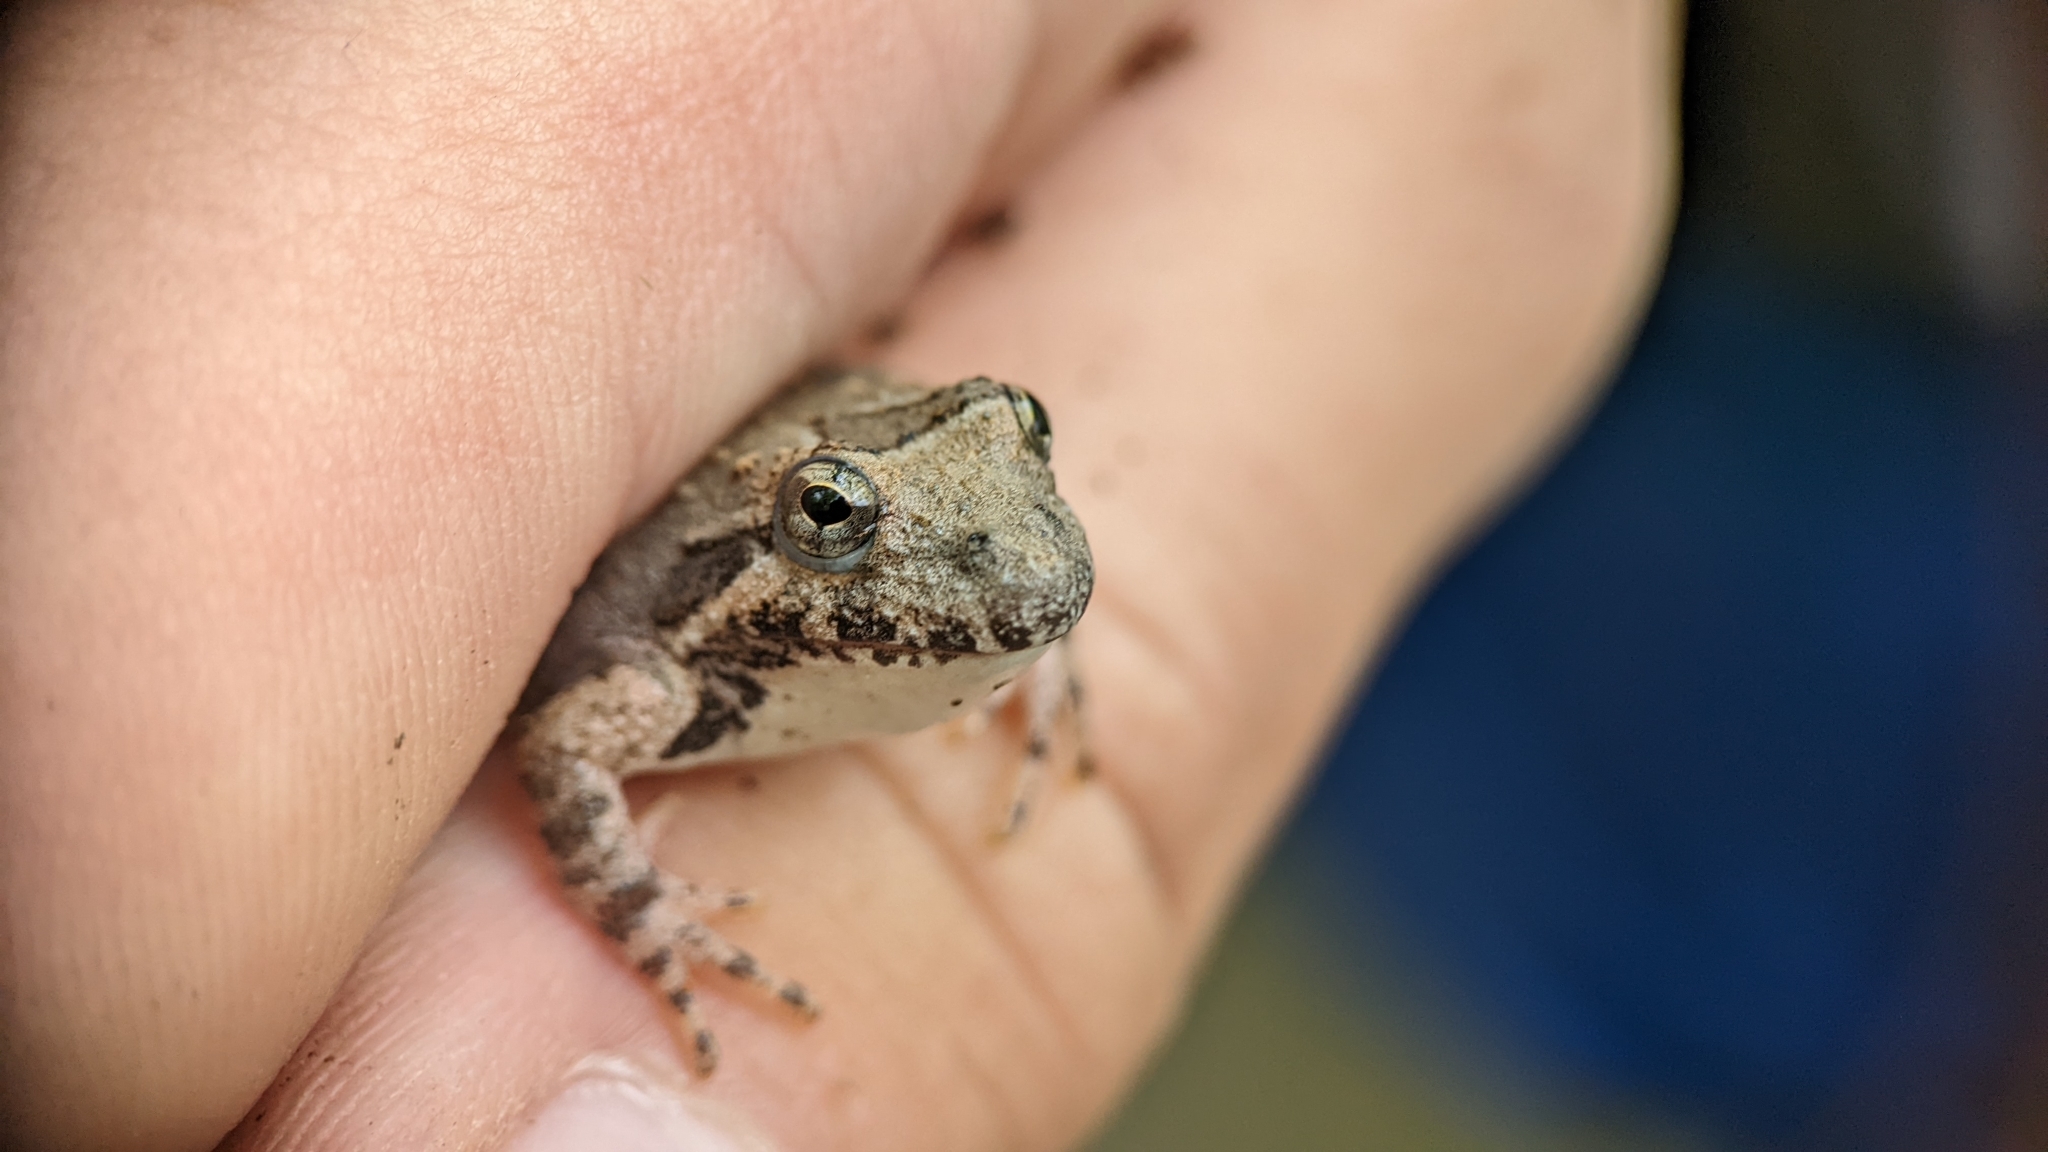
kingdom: Animalia
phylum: Chordata
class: Amphibia
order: Anura
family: Hylidae
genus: Acris
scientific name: Acris blanchardi
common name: Blanchard's cricket frog
